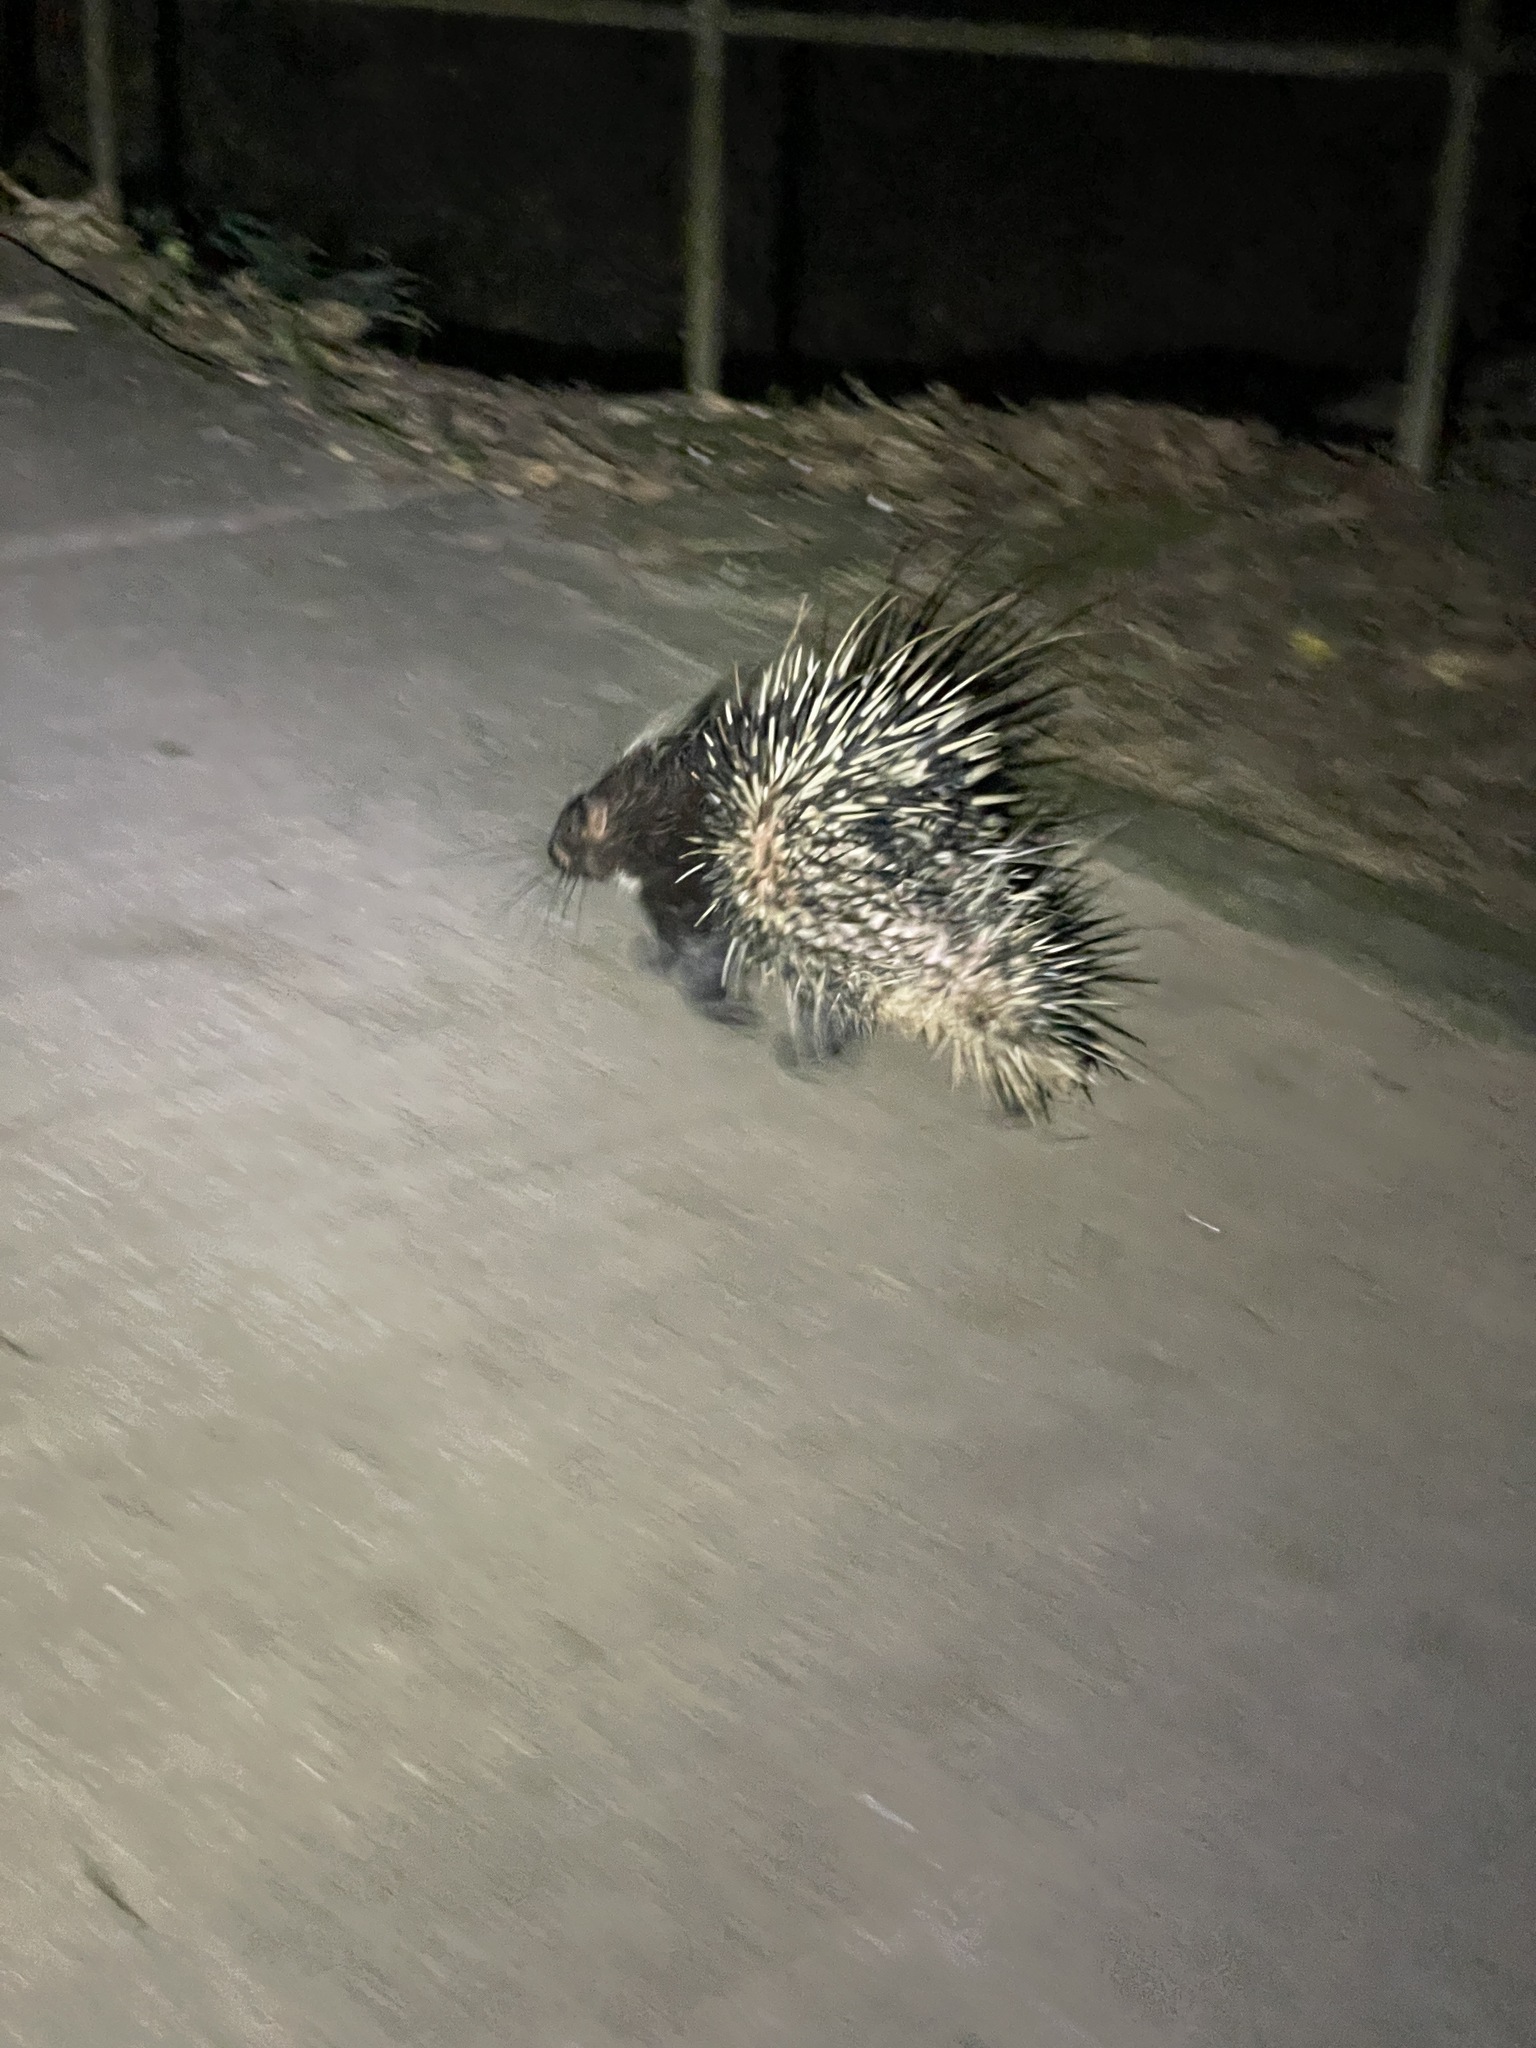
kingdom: Animalia
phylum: Chordata
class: Mammalia
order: Rodentia
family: Hystricidae
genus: Hystrix
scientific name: Hystrix brachyura
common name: Malayan porcupine
